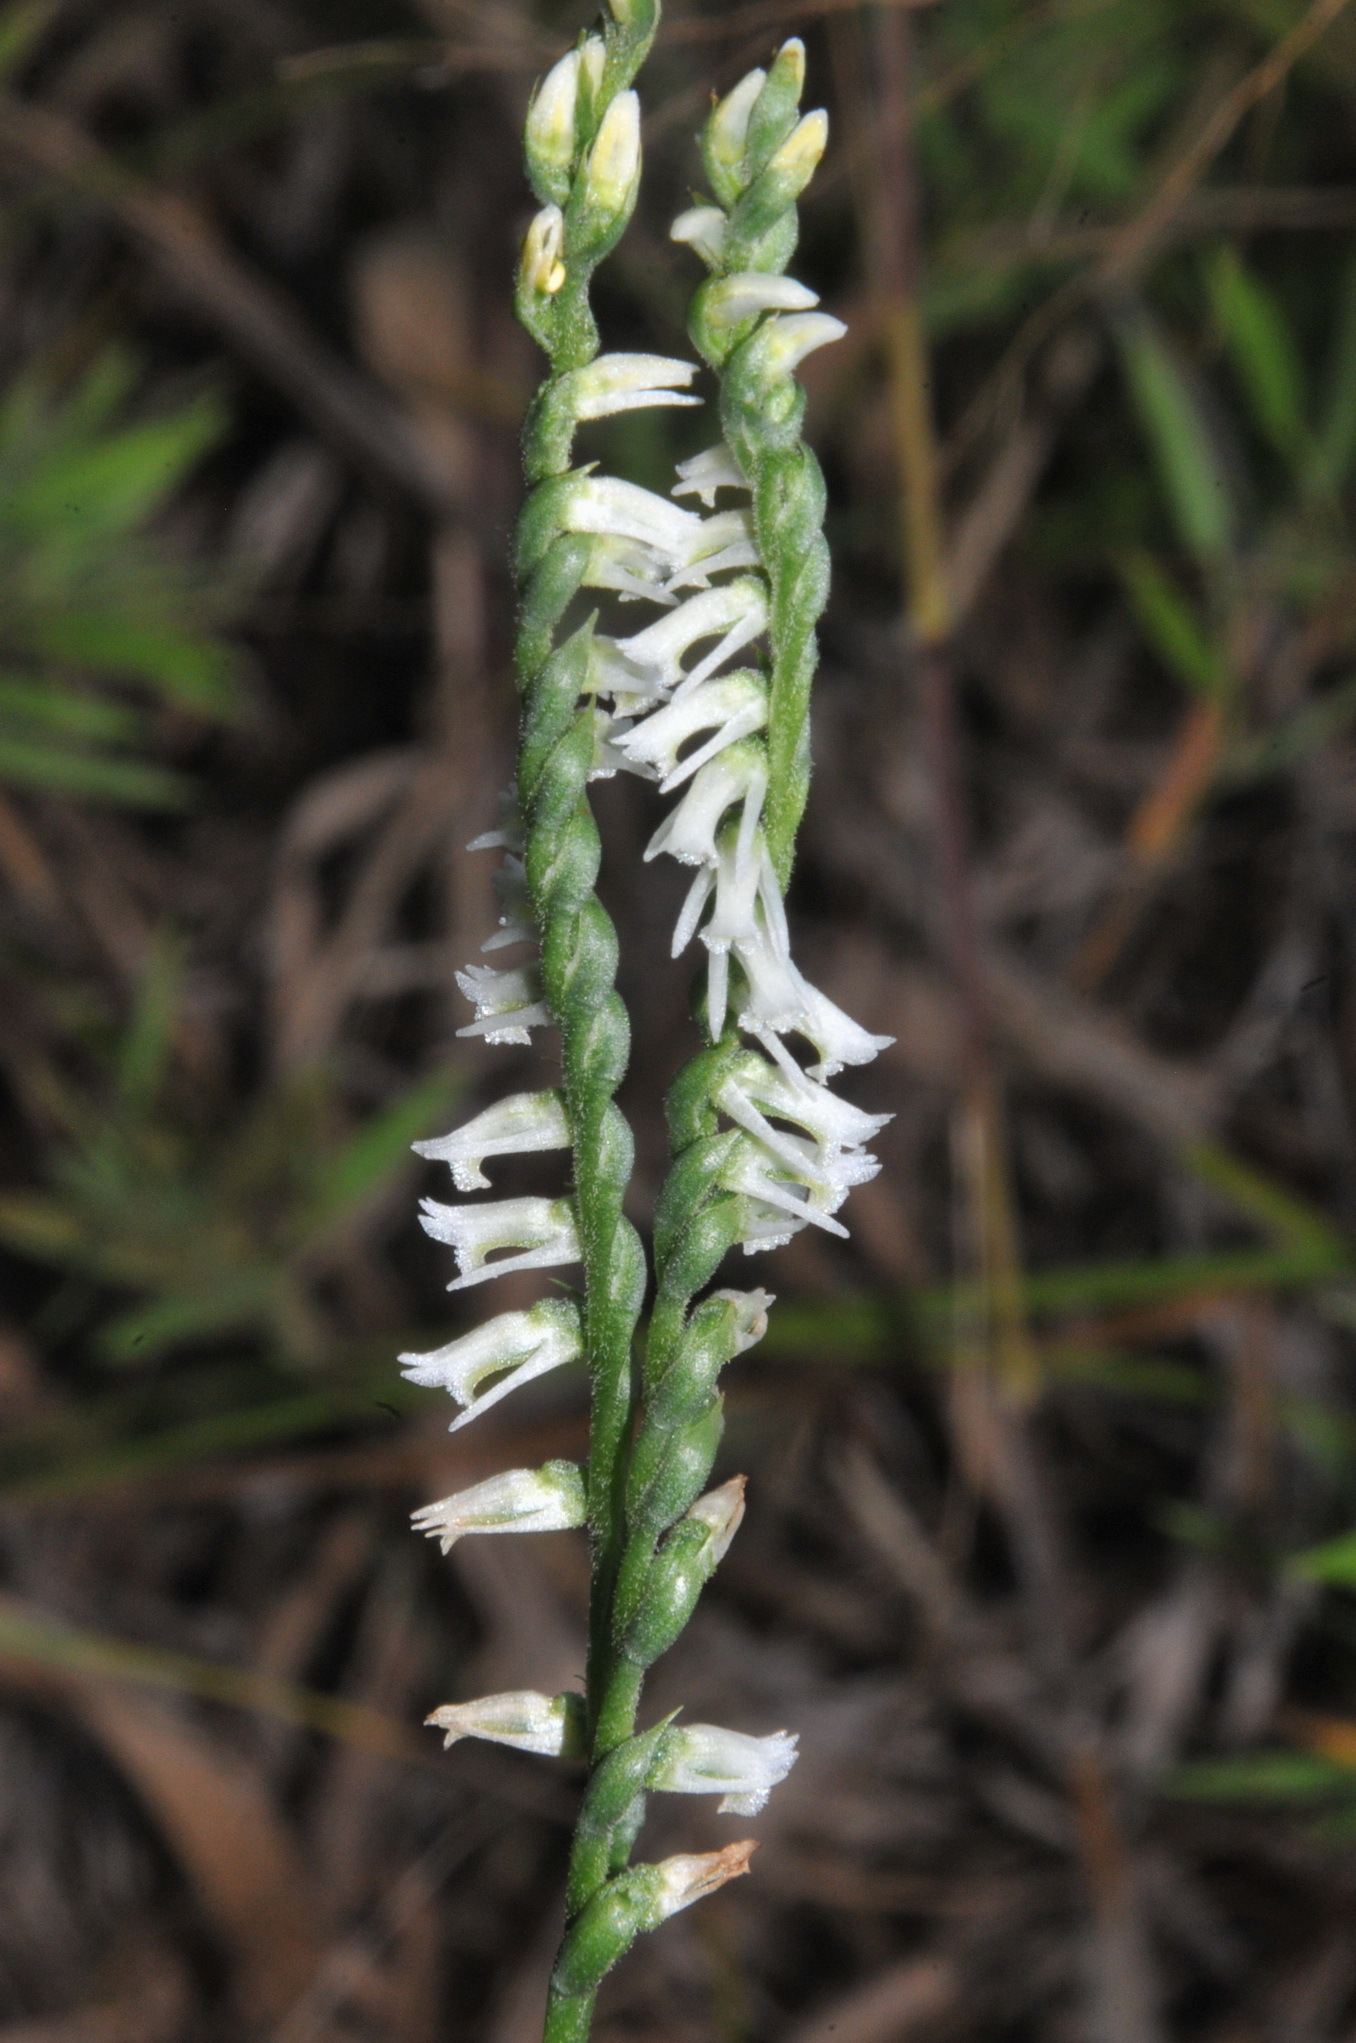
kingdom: Plantae
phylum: Tracheophyta
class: Liliopsida
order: Asparagales
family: Orchidaceae
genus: Spiranthes
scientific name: Spiranthes lacera
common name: Northern slender ladies'-tresses
